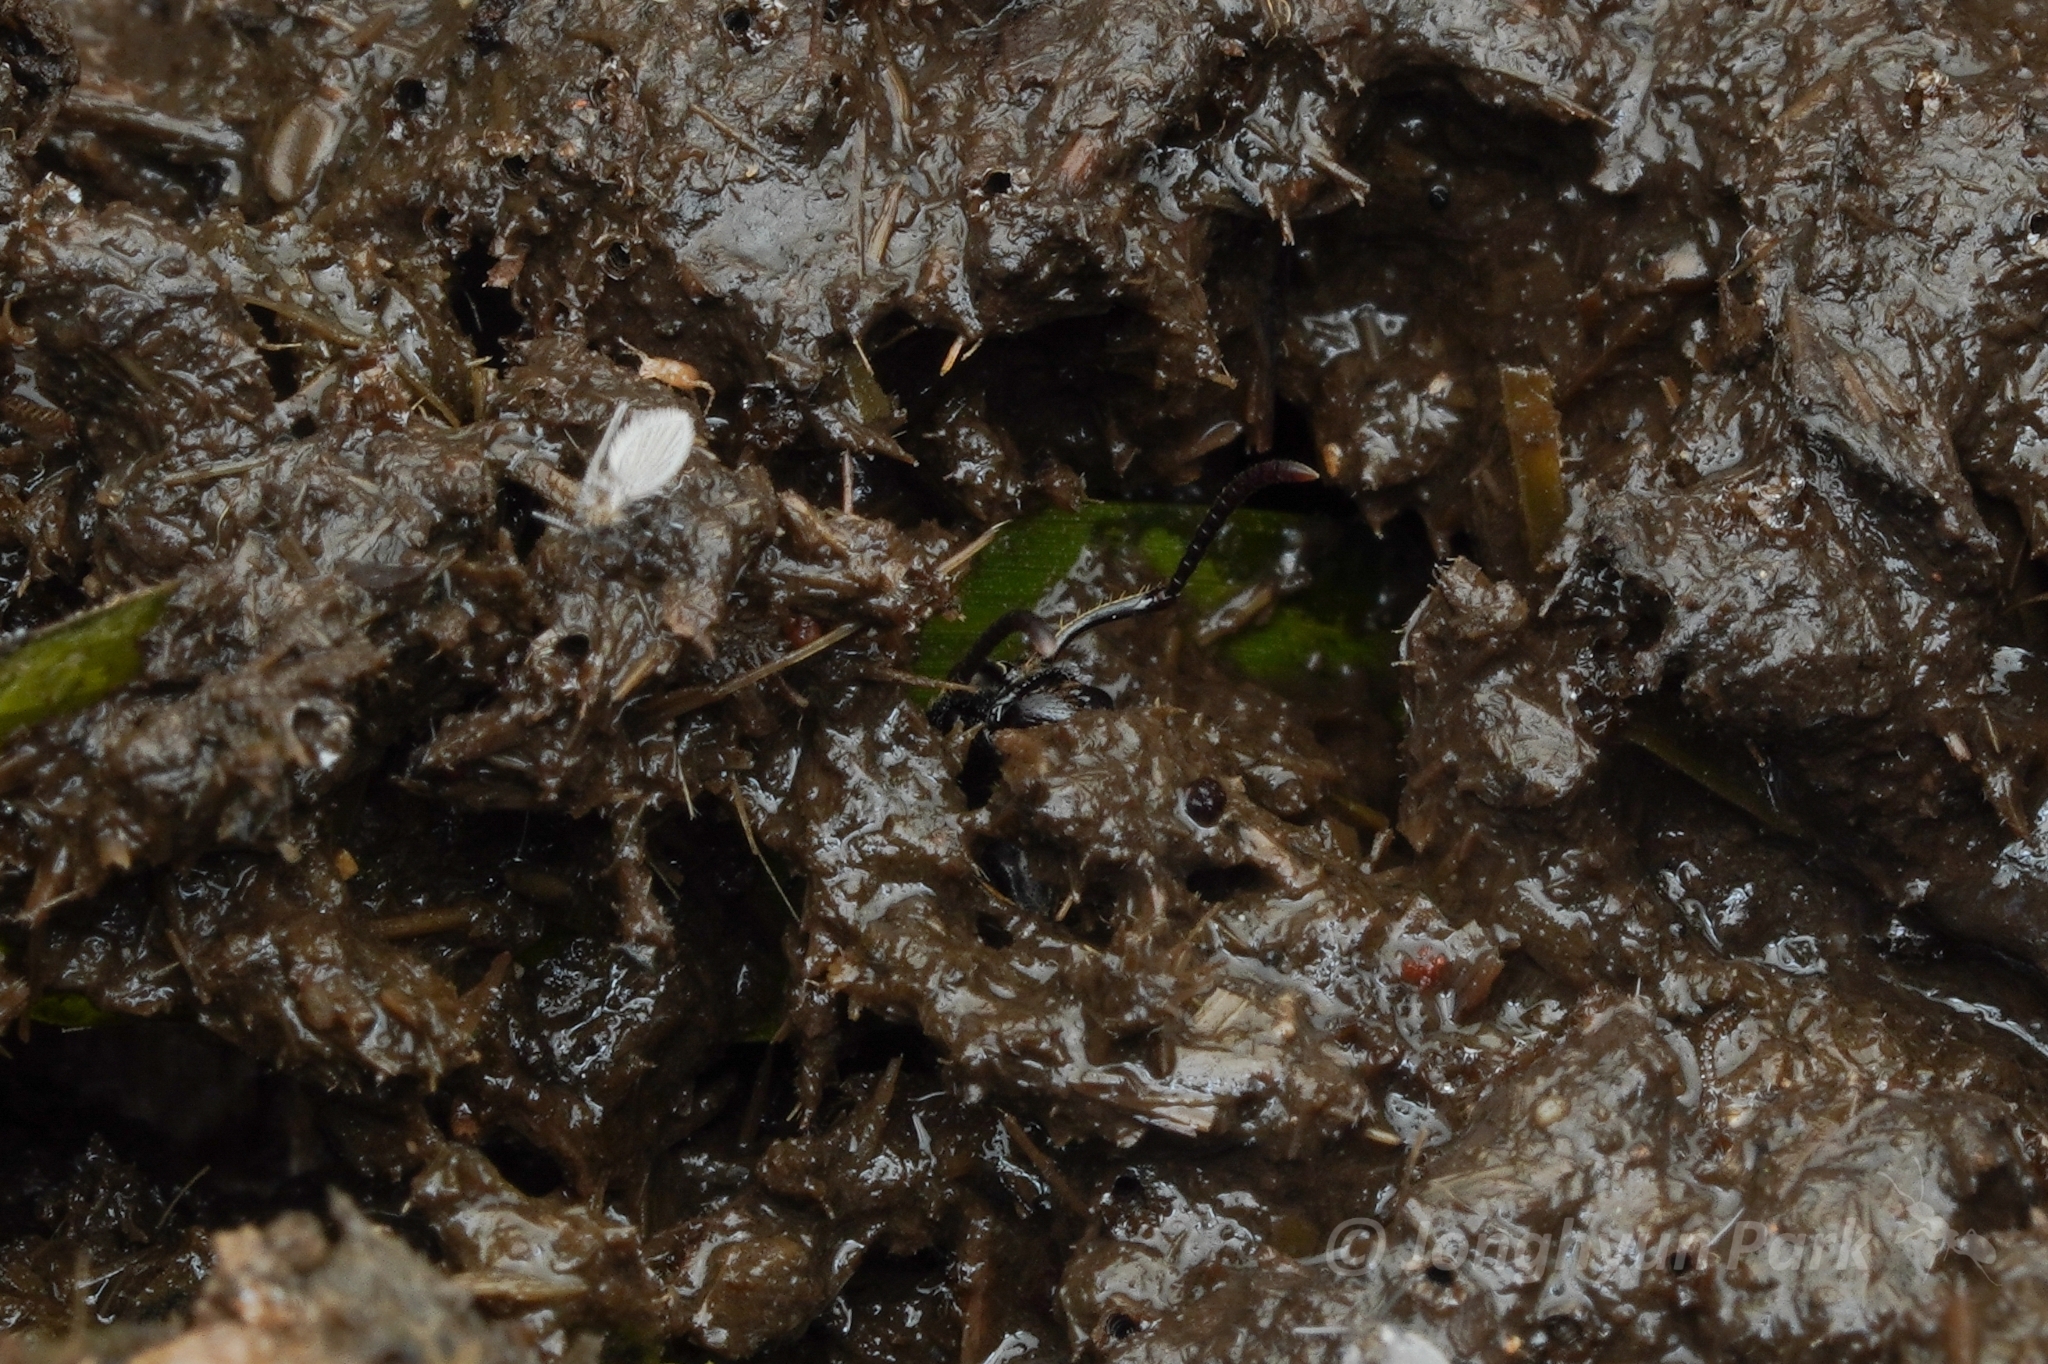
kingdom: Animalia
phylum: Arthropoda
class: Insecta
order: Hymenoptera
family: Formicidae
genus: Odontoponera
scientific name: Odontoponera denticulata
